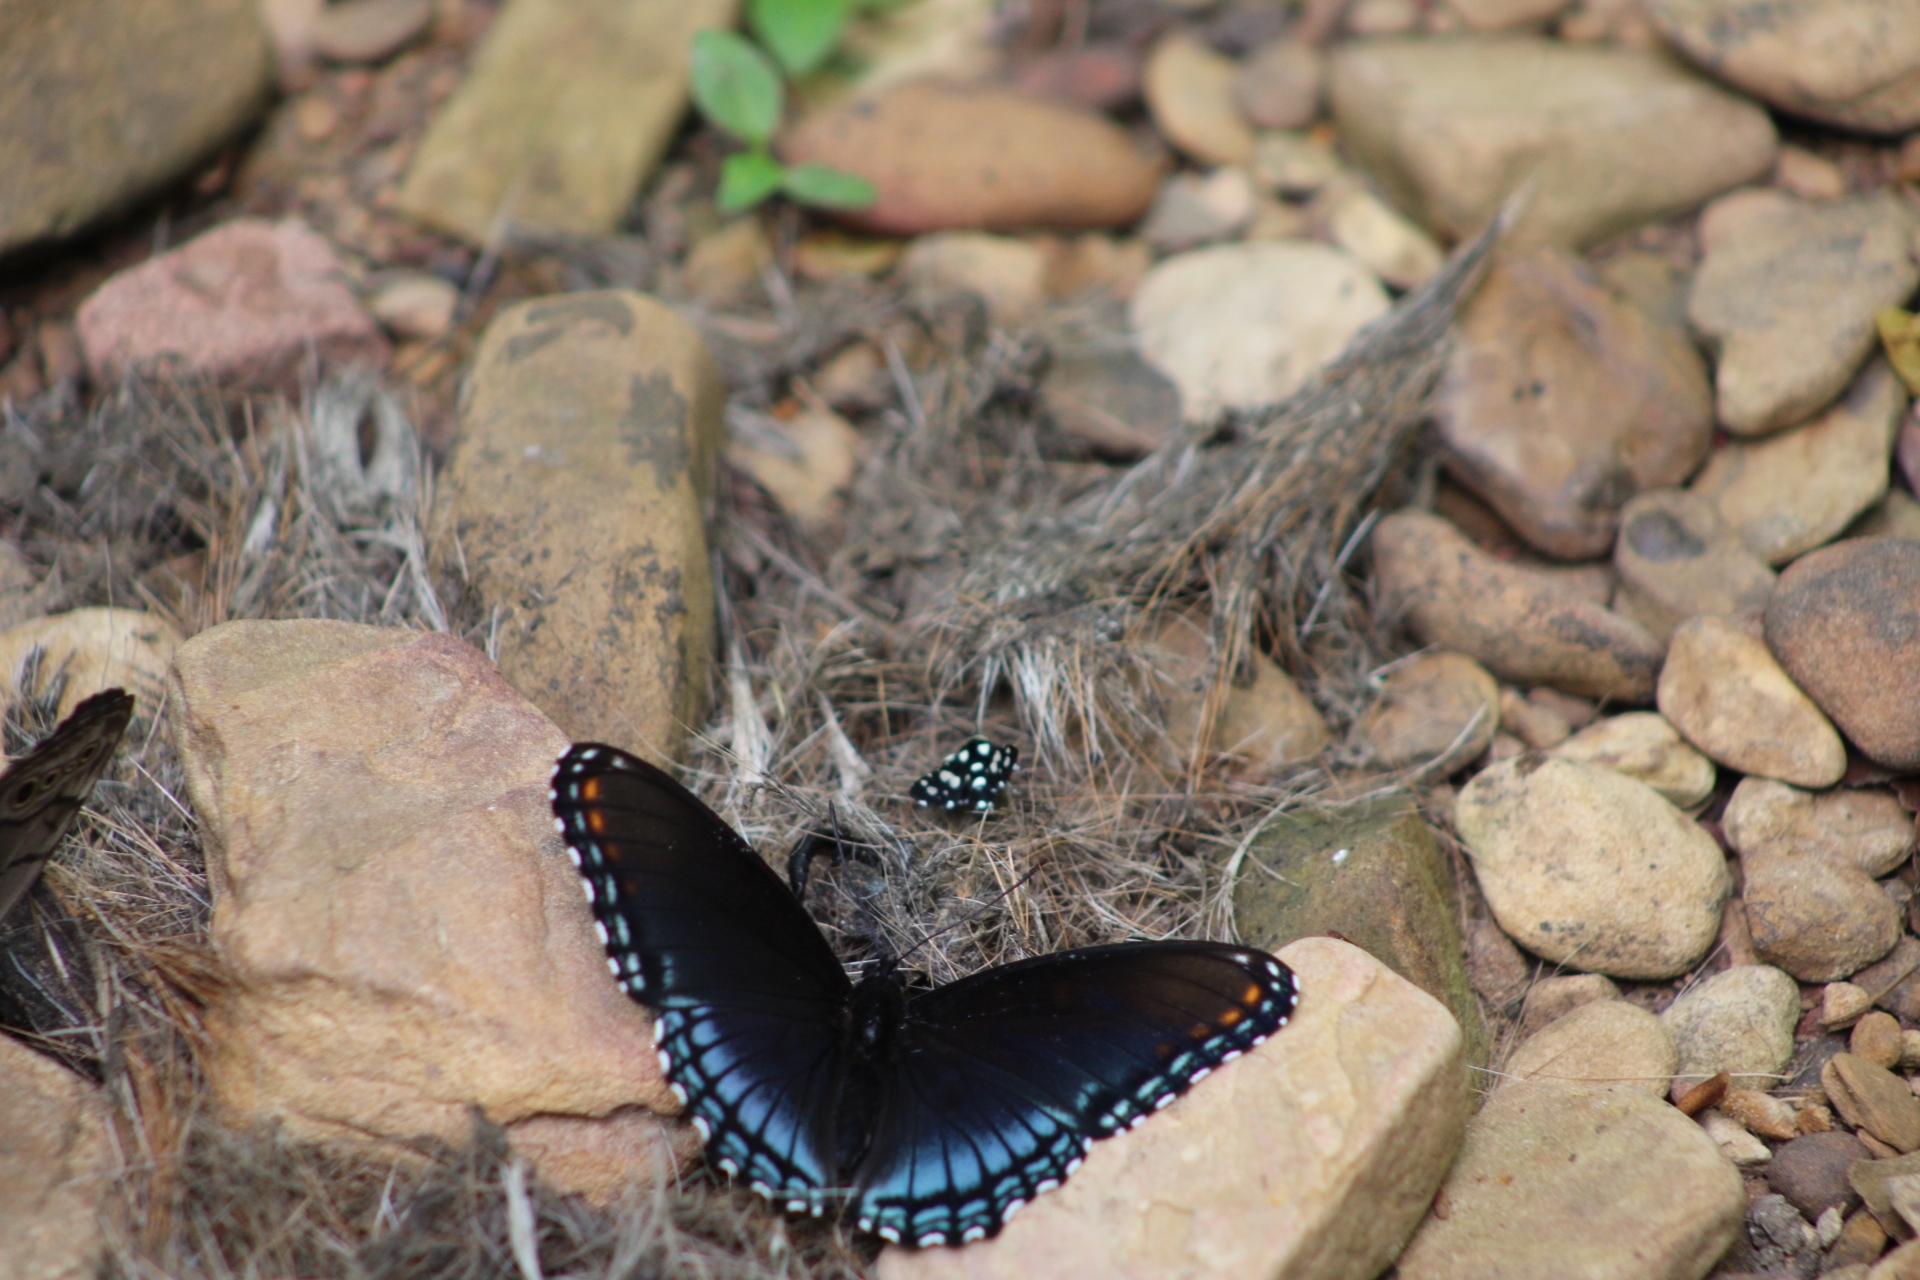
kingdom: Animalia
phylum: Arthropoda
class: Insecta
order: Lepidoptera
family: Thyrididae
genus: Pseudothyris
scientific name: Pseudothyris sepulchralis
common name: Mournful thyris moth
